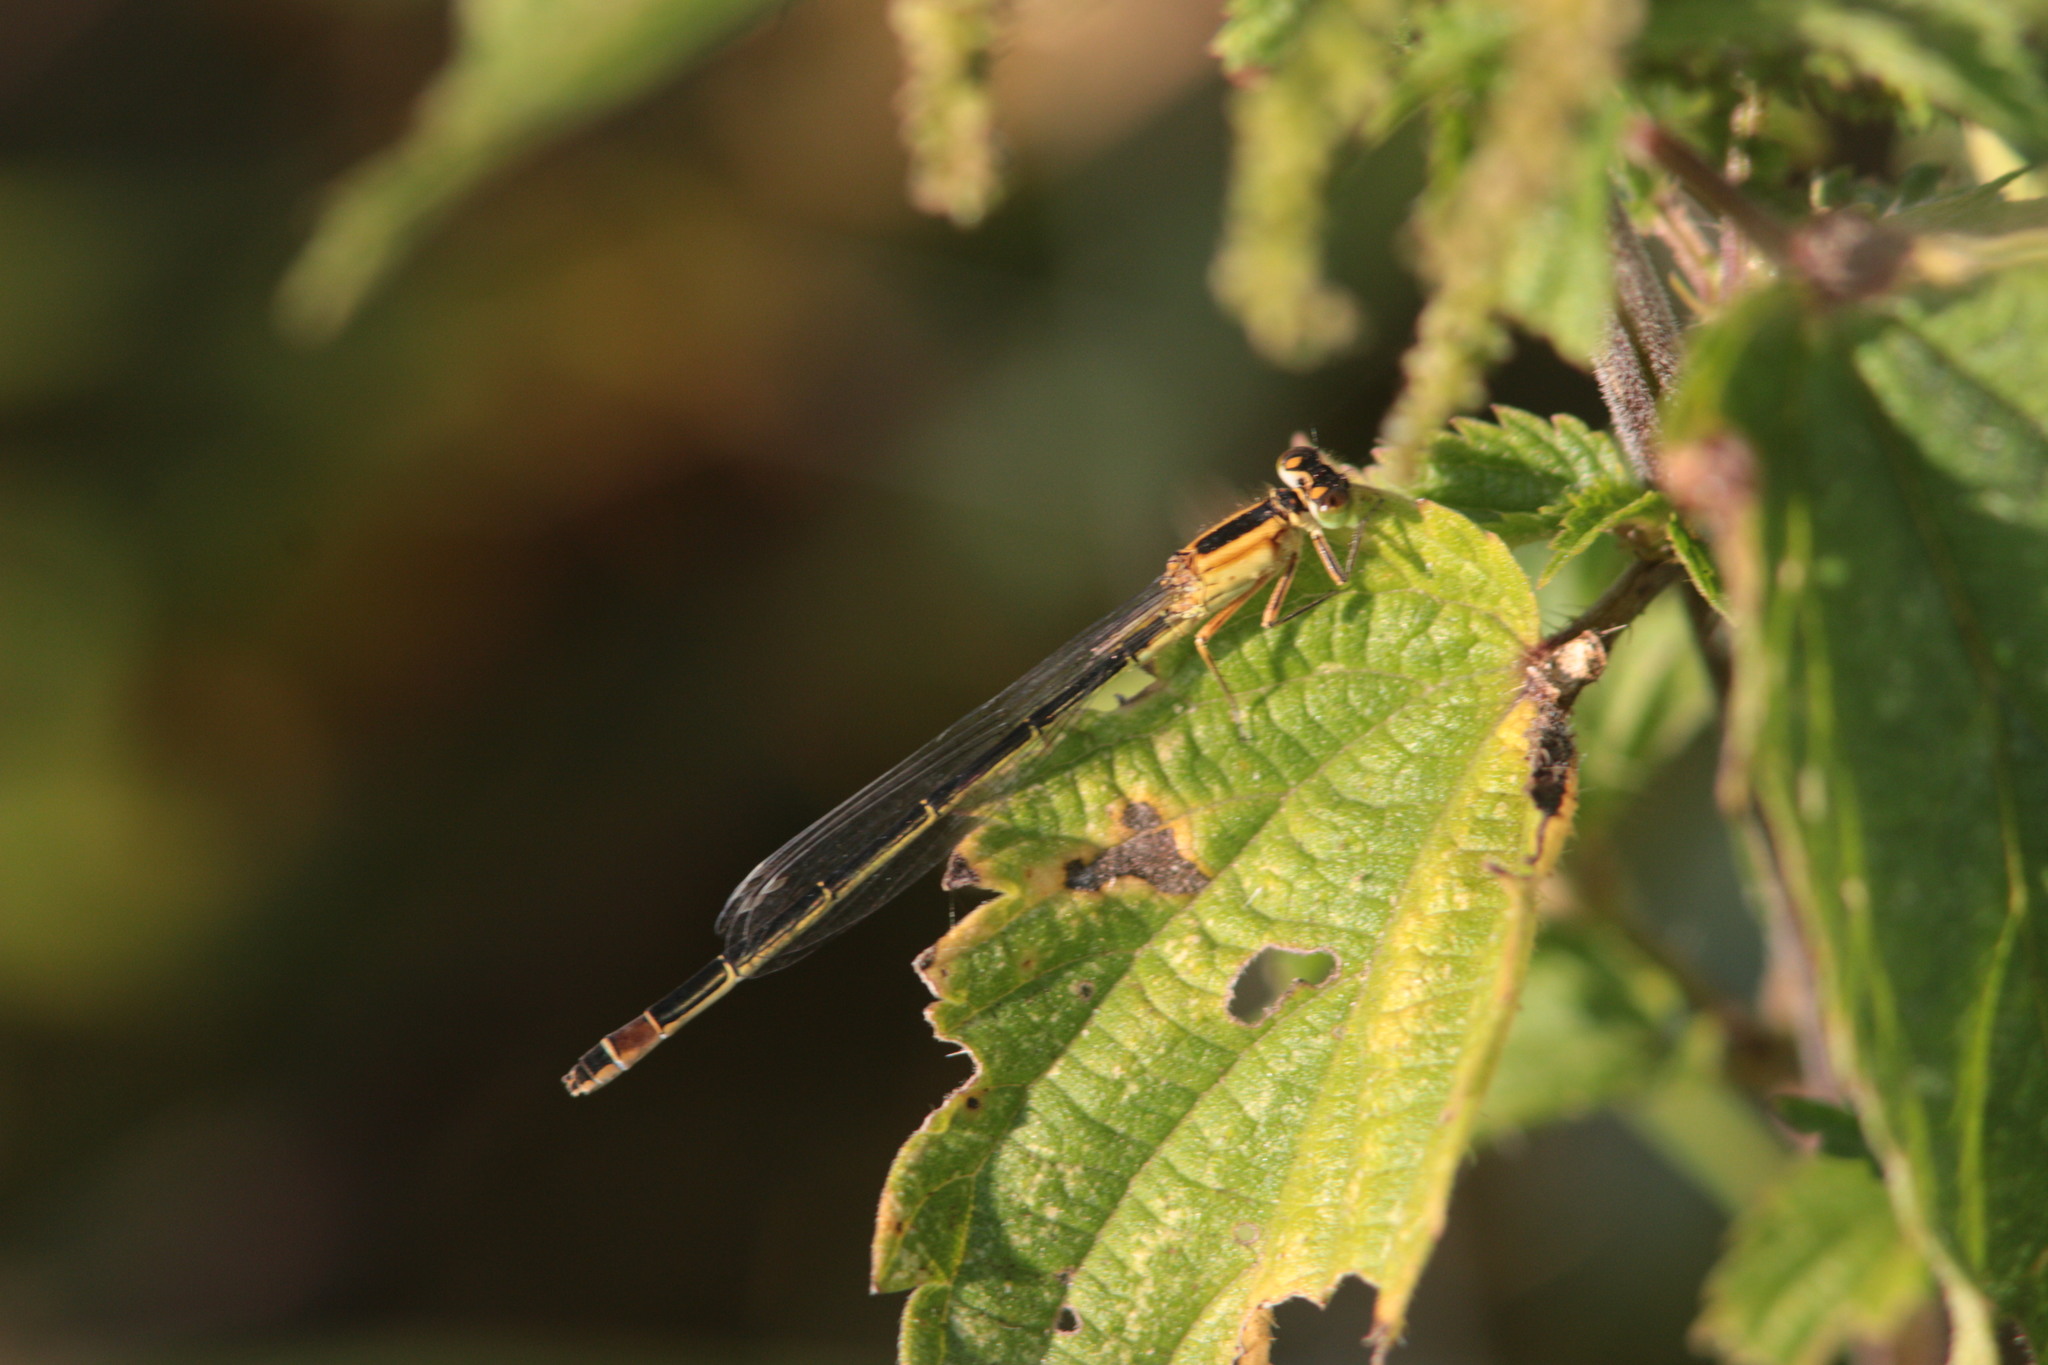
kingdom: Animalia
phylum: Arthropoda
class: Insecta
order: Odonata
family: Coenagrionidae
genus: Ischnura
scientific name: Ischnura elegans
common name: Blue-tailed damselfly
